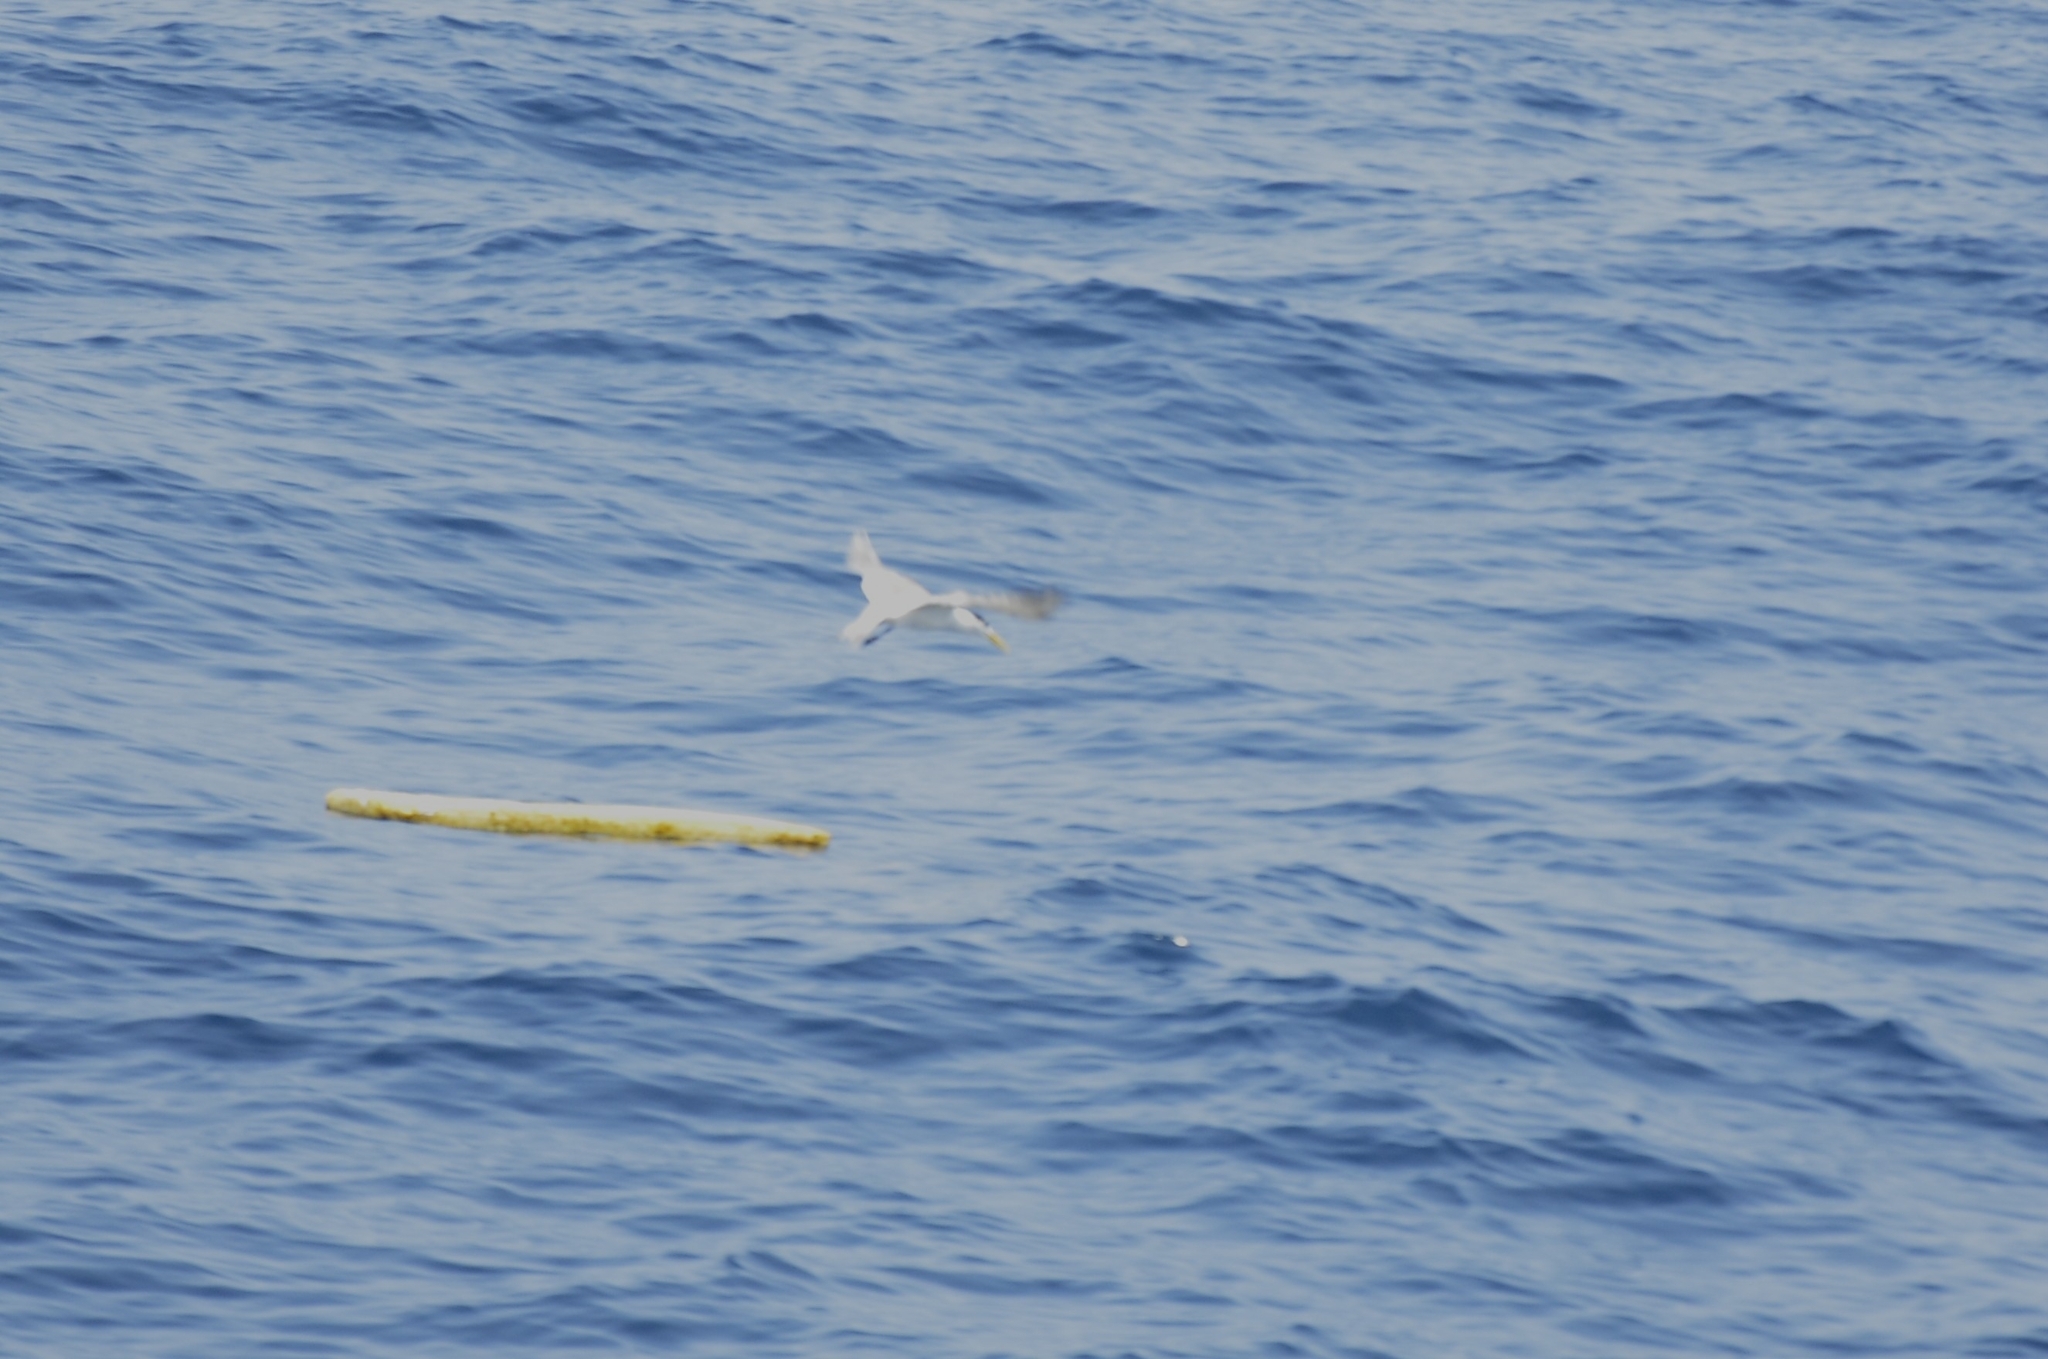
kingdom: Animalia
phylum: Chordata
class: Aves
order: Charadriiformes
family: Laridae
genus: Thalasseus
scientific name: Thalasseus bergii
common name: Greater crested tern
